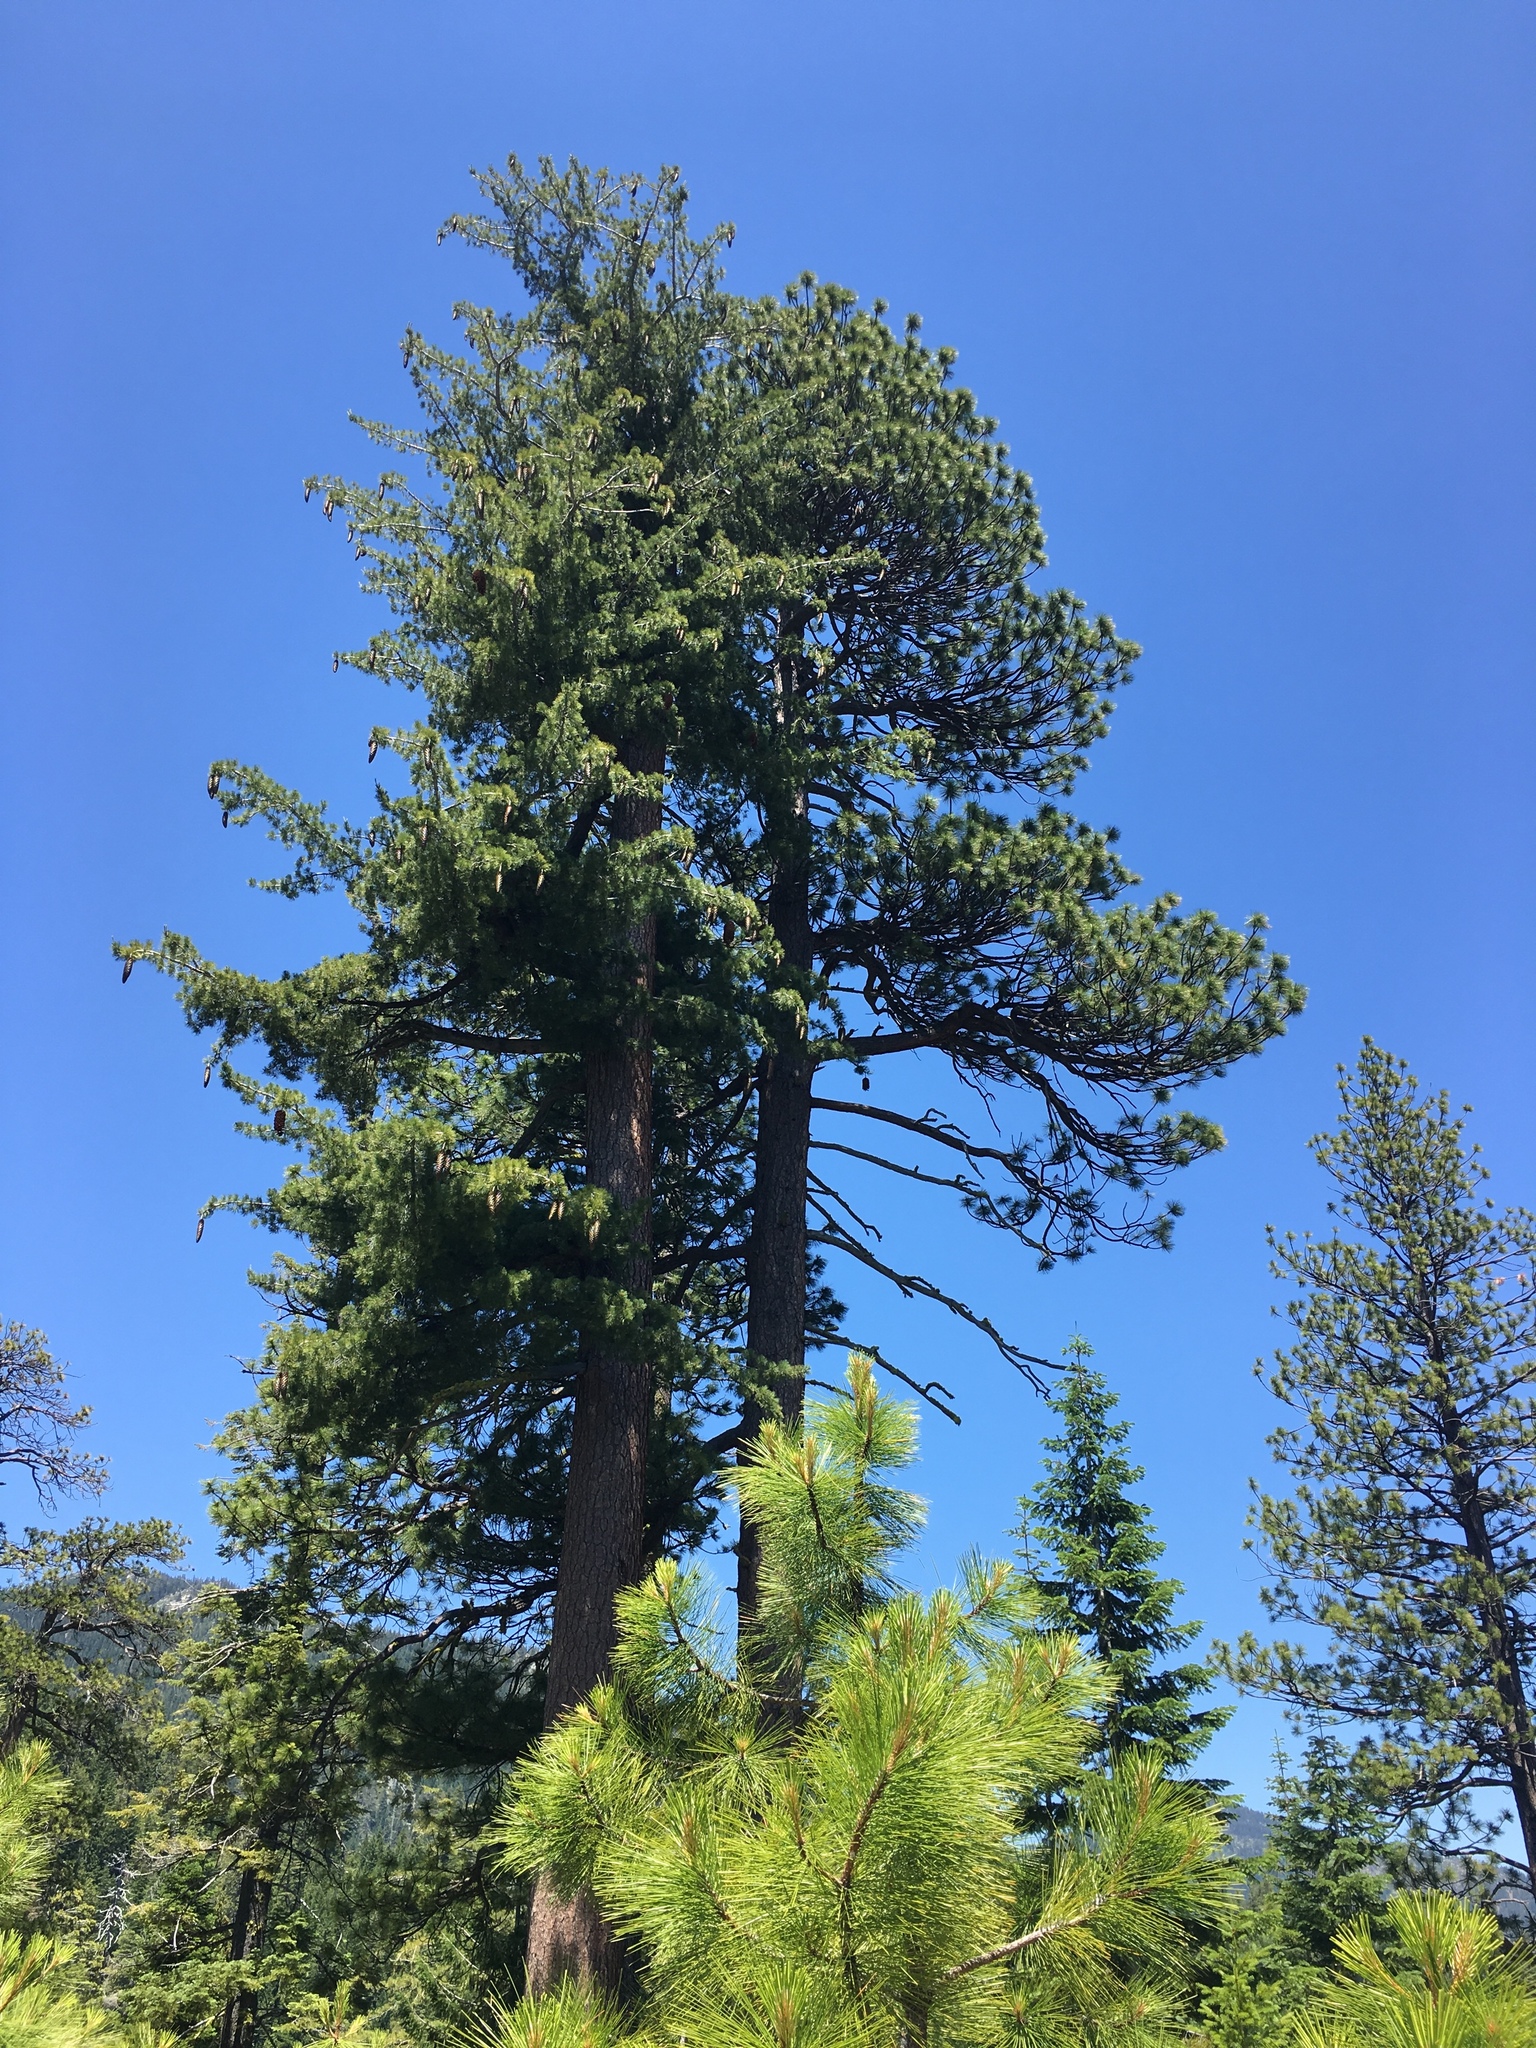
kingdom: Plantae
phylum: Tracheophyta
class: Pinopsida
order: Pinales
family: Pinaceae
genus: Pinus
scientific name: Pinus lambertiana
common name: Sugar pine
